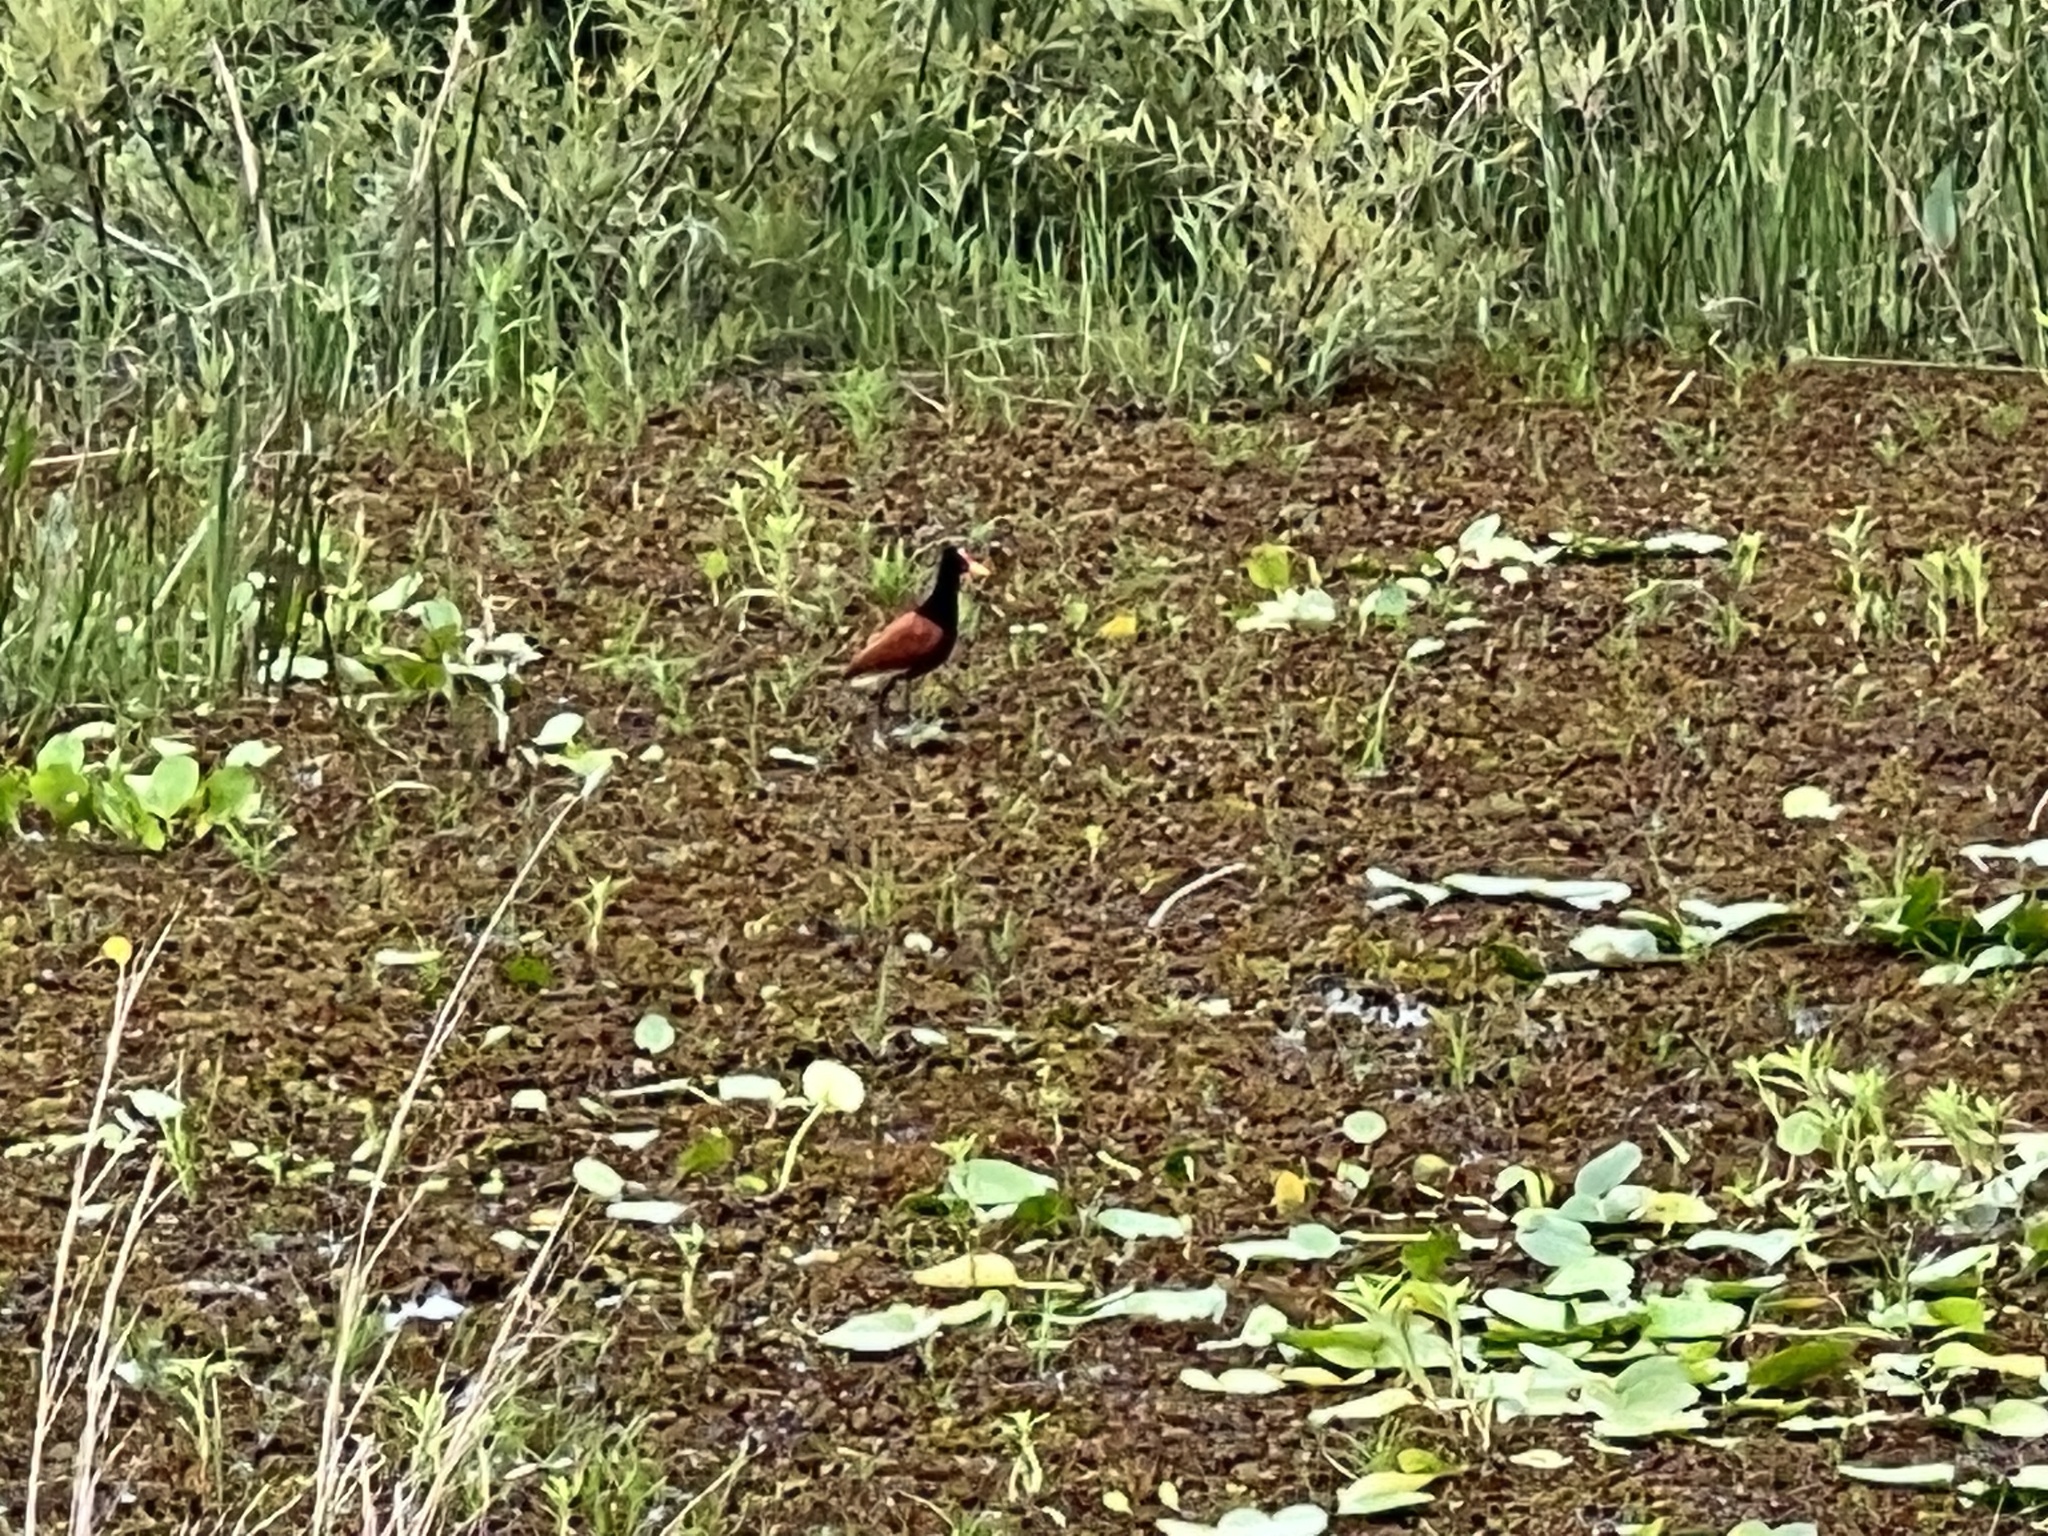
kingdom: Animalia
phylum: Chordata
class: Aves
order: Charadriiformes
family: Jacanidae
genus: Jacana
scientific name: Jacana jacana
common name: Wattled jacana
